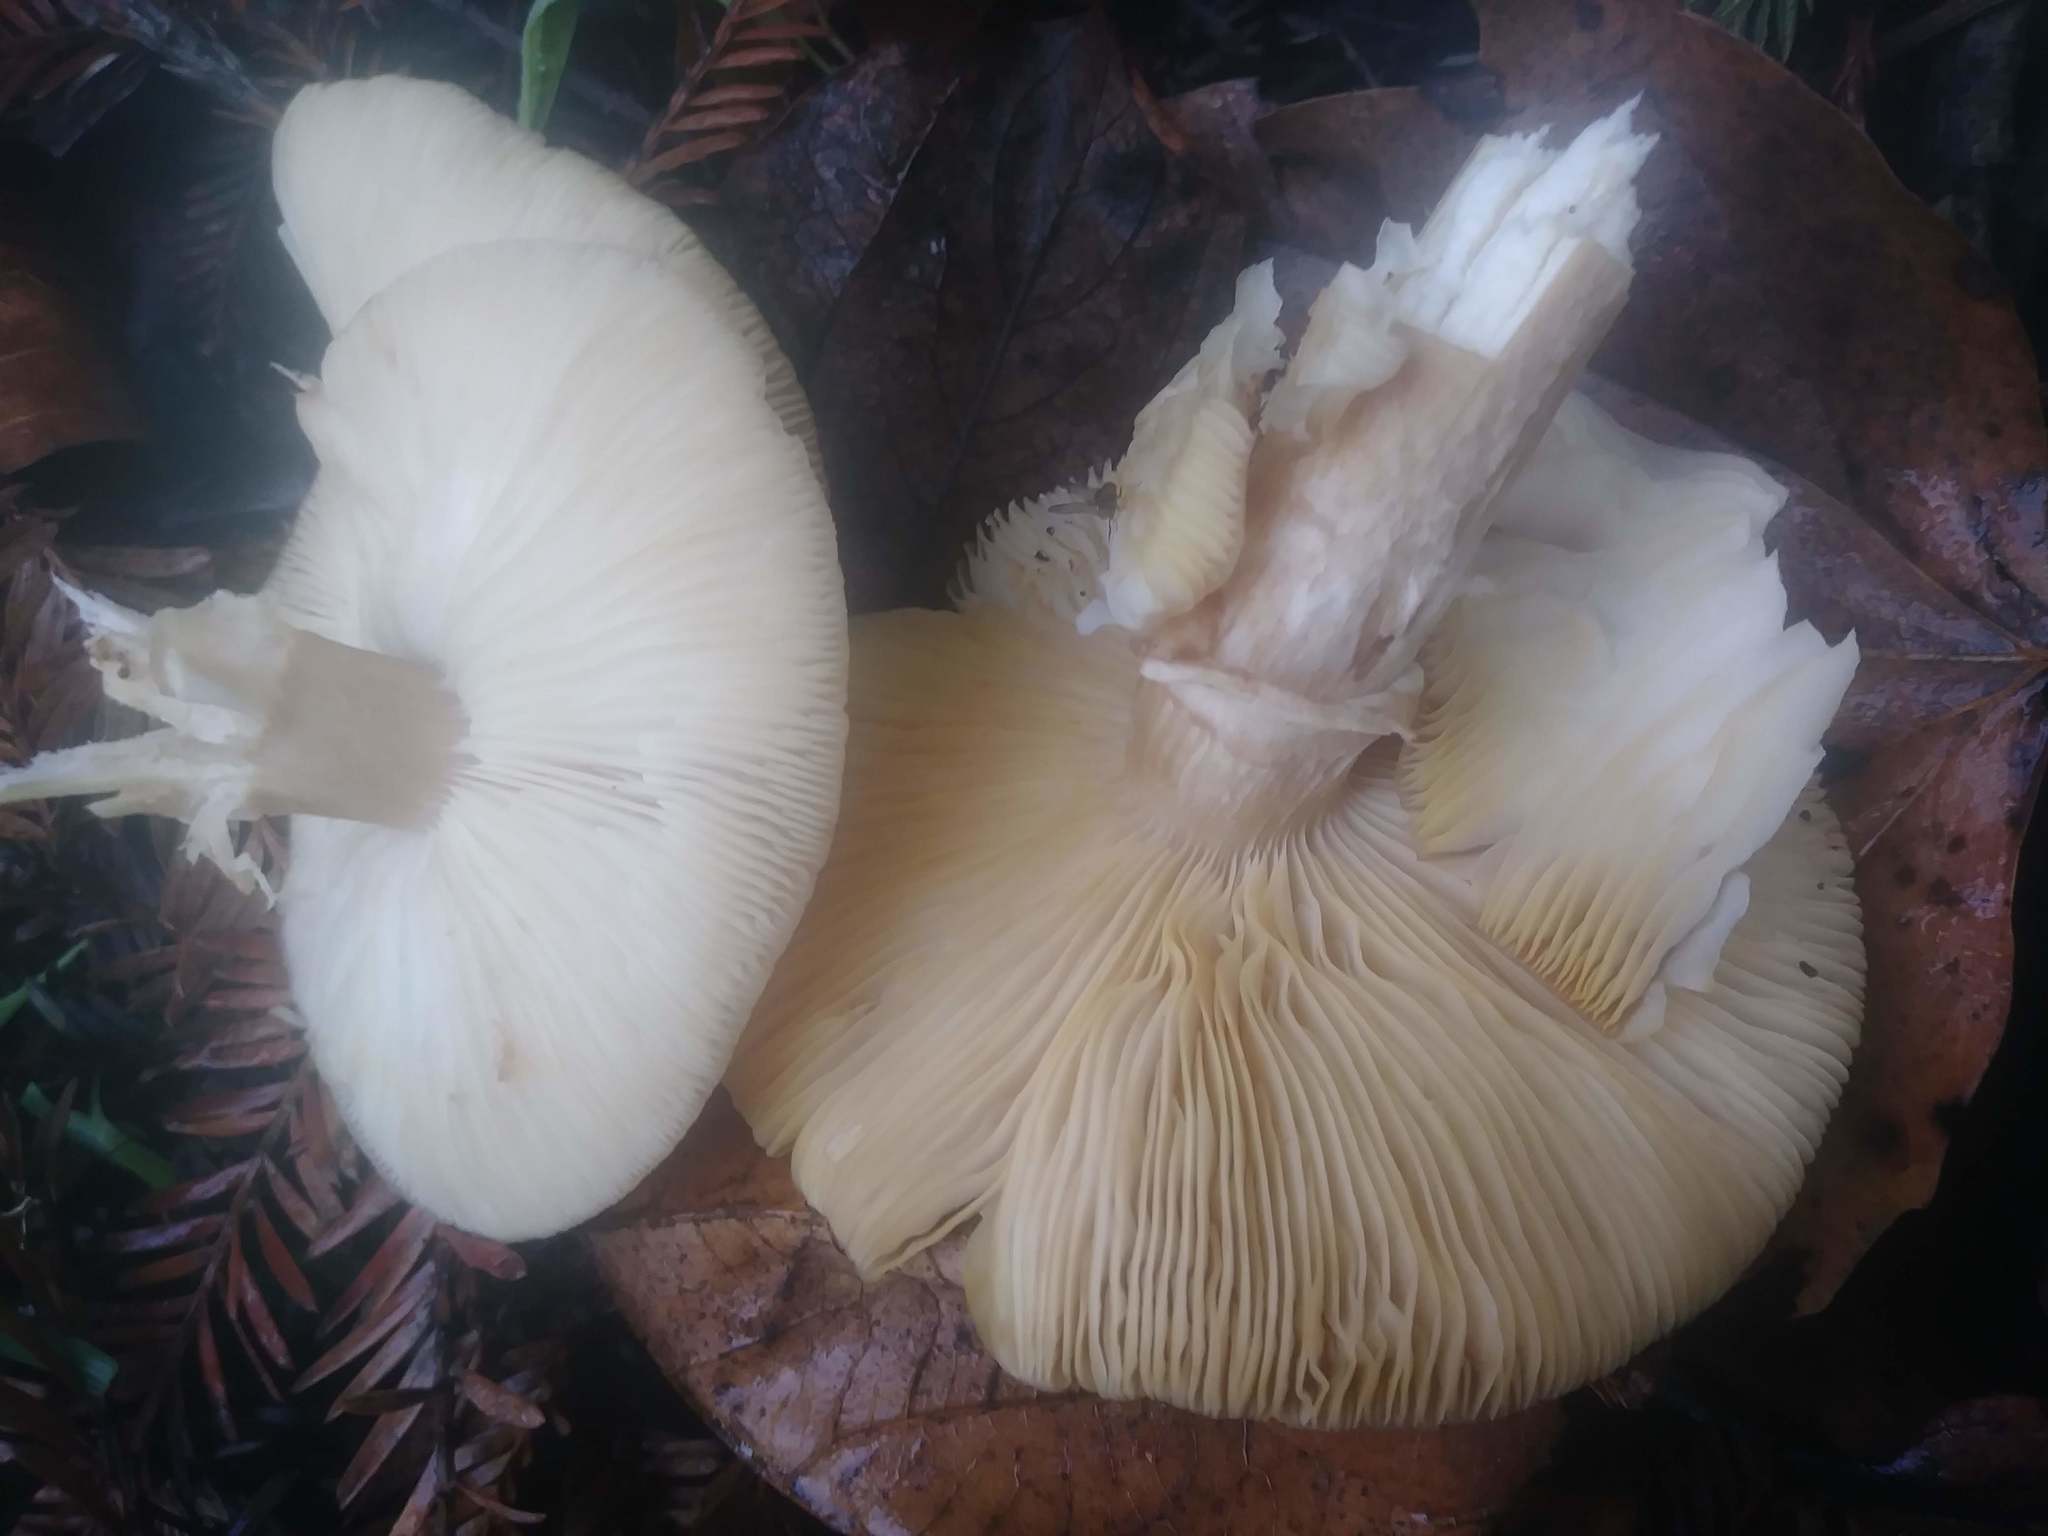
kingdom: Fungi
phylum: Basidiomycota
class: Agaricomycetes
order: Agaricales
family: Physalacriaceae
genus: Armillaria
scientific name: Armillaria mellea
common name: Honey fungus
